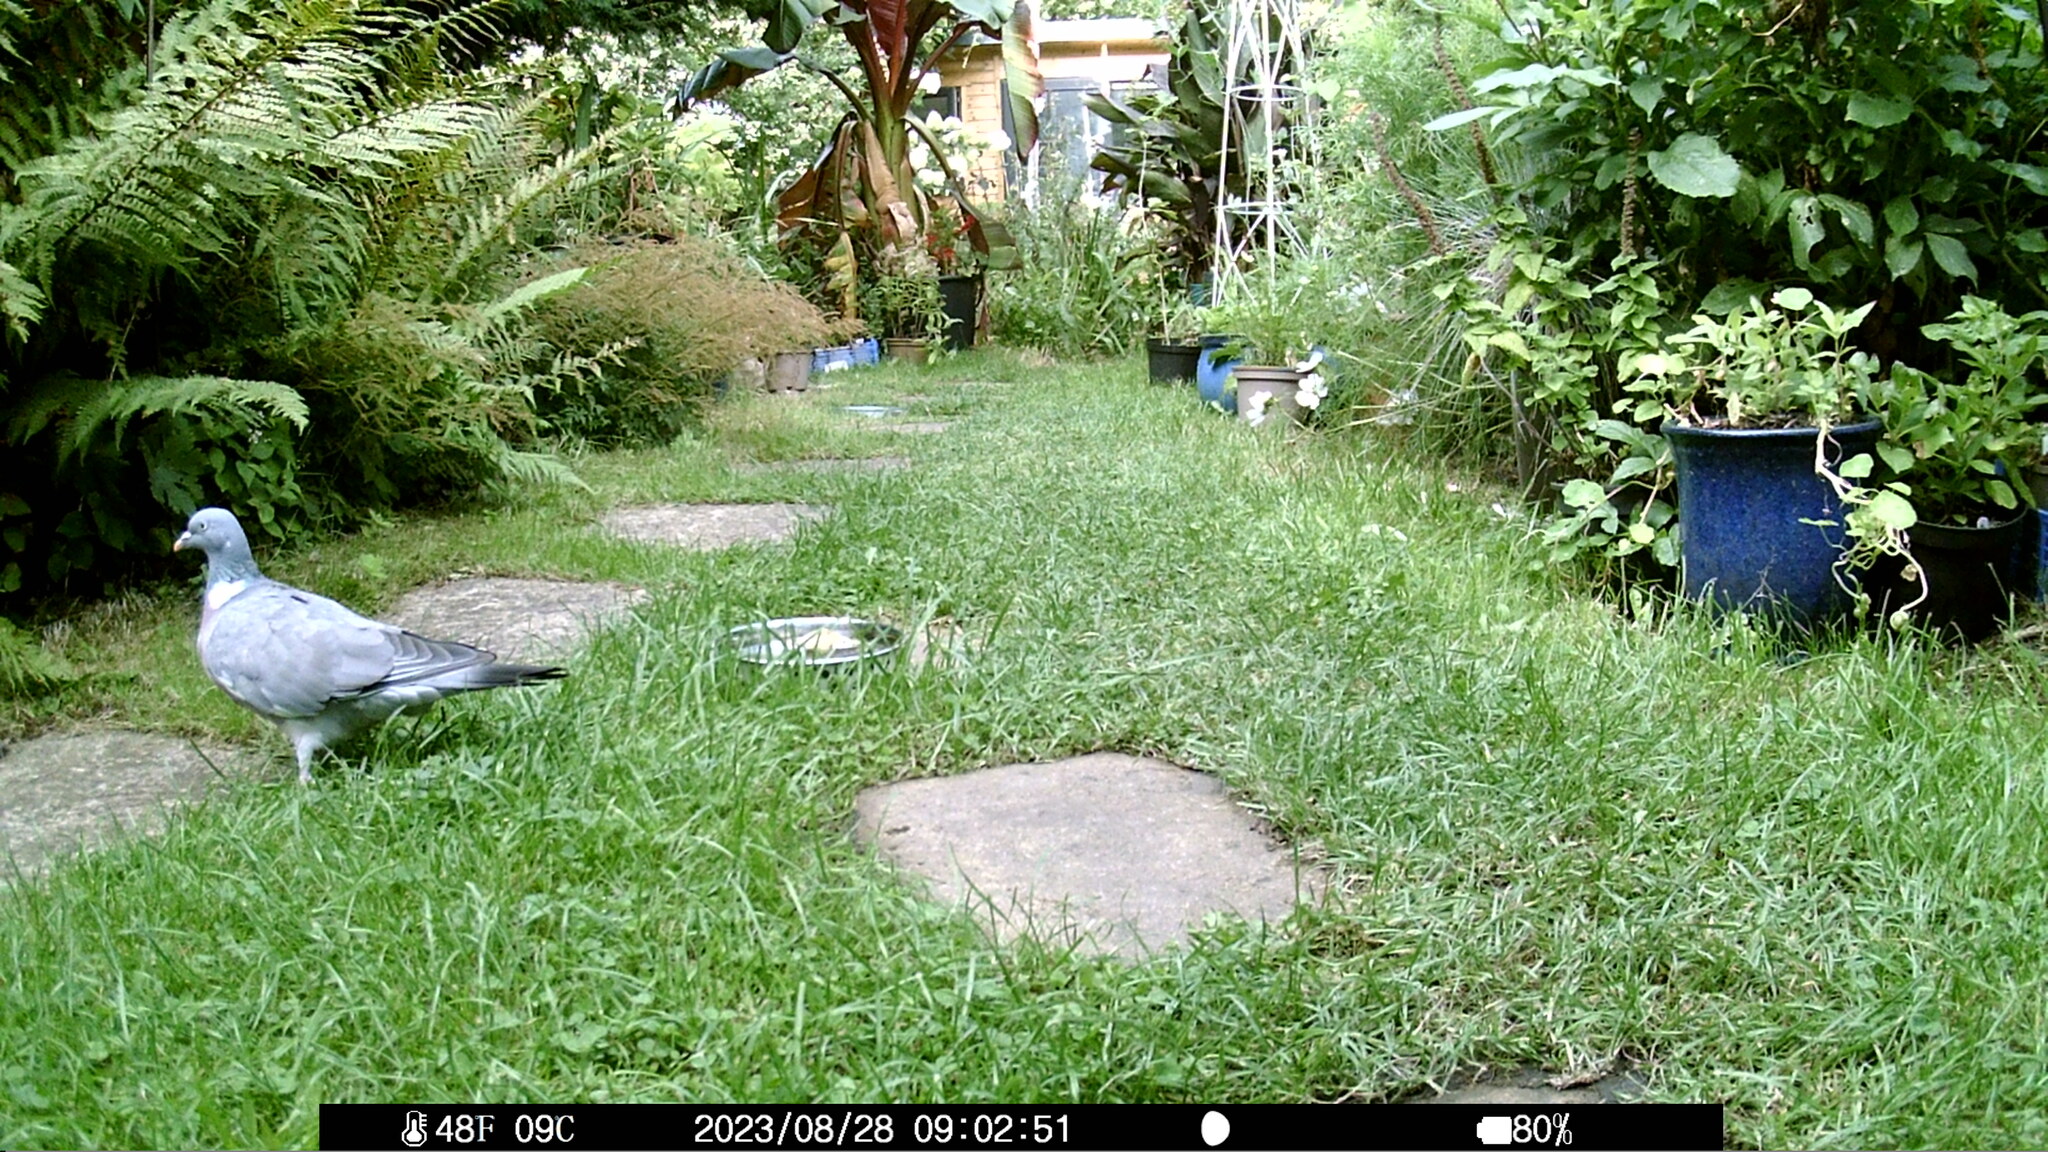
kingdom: Animalia
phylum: Chordata
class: Aves
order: Columbiformes
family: Columbidae
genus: Columba
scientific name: Columba palumbus
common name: Common wood pigeon
